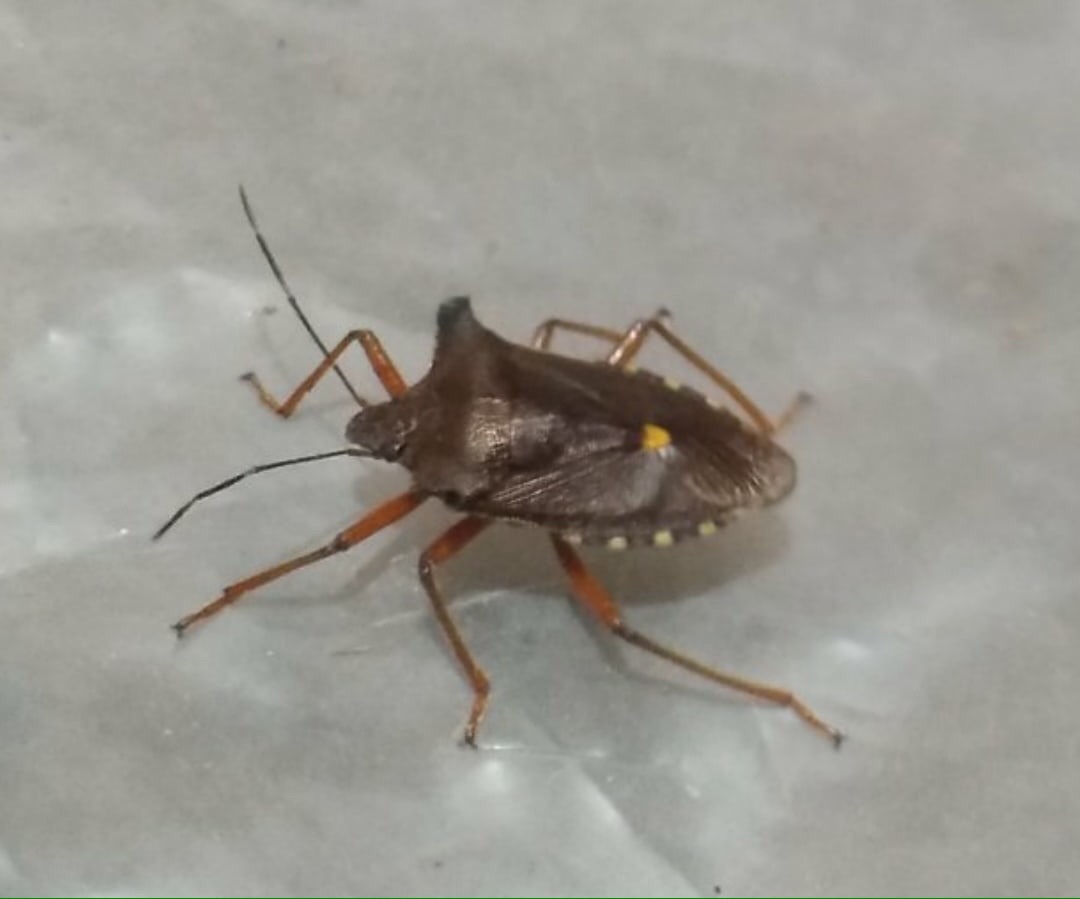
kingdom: Animalia
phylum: Arthropoda
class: Insecta
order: Hemiptera
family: Pentatomidae
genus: Pentatoma
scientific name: Pentatoma rufipes
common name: Forest bug
